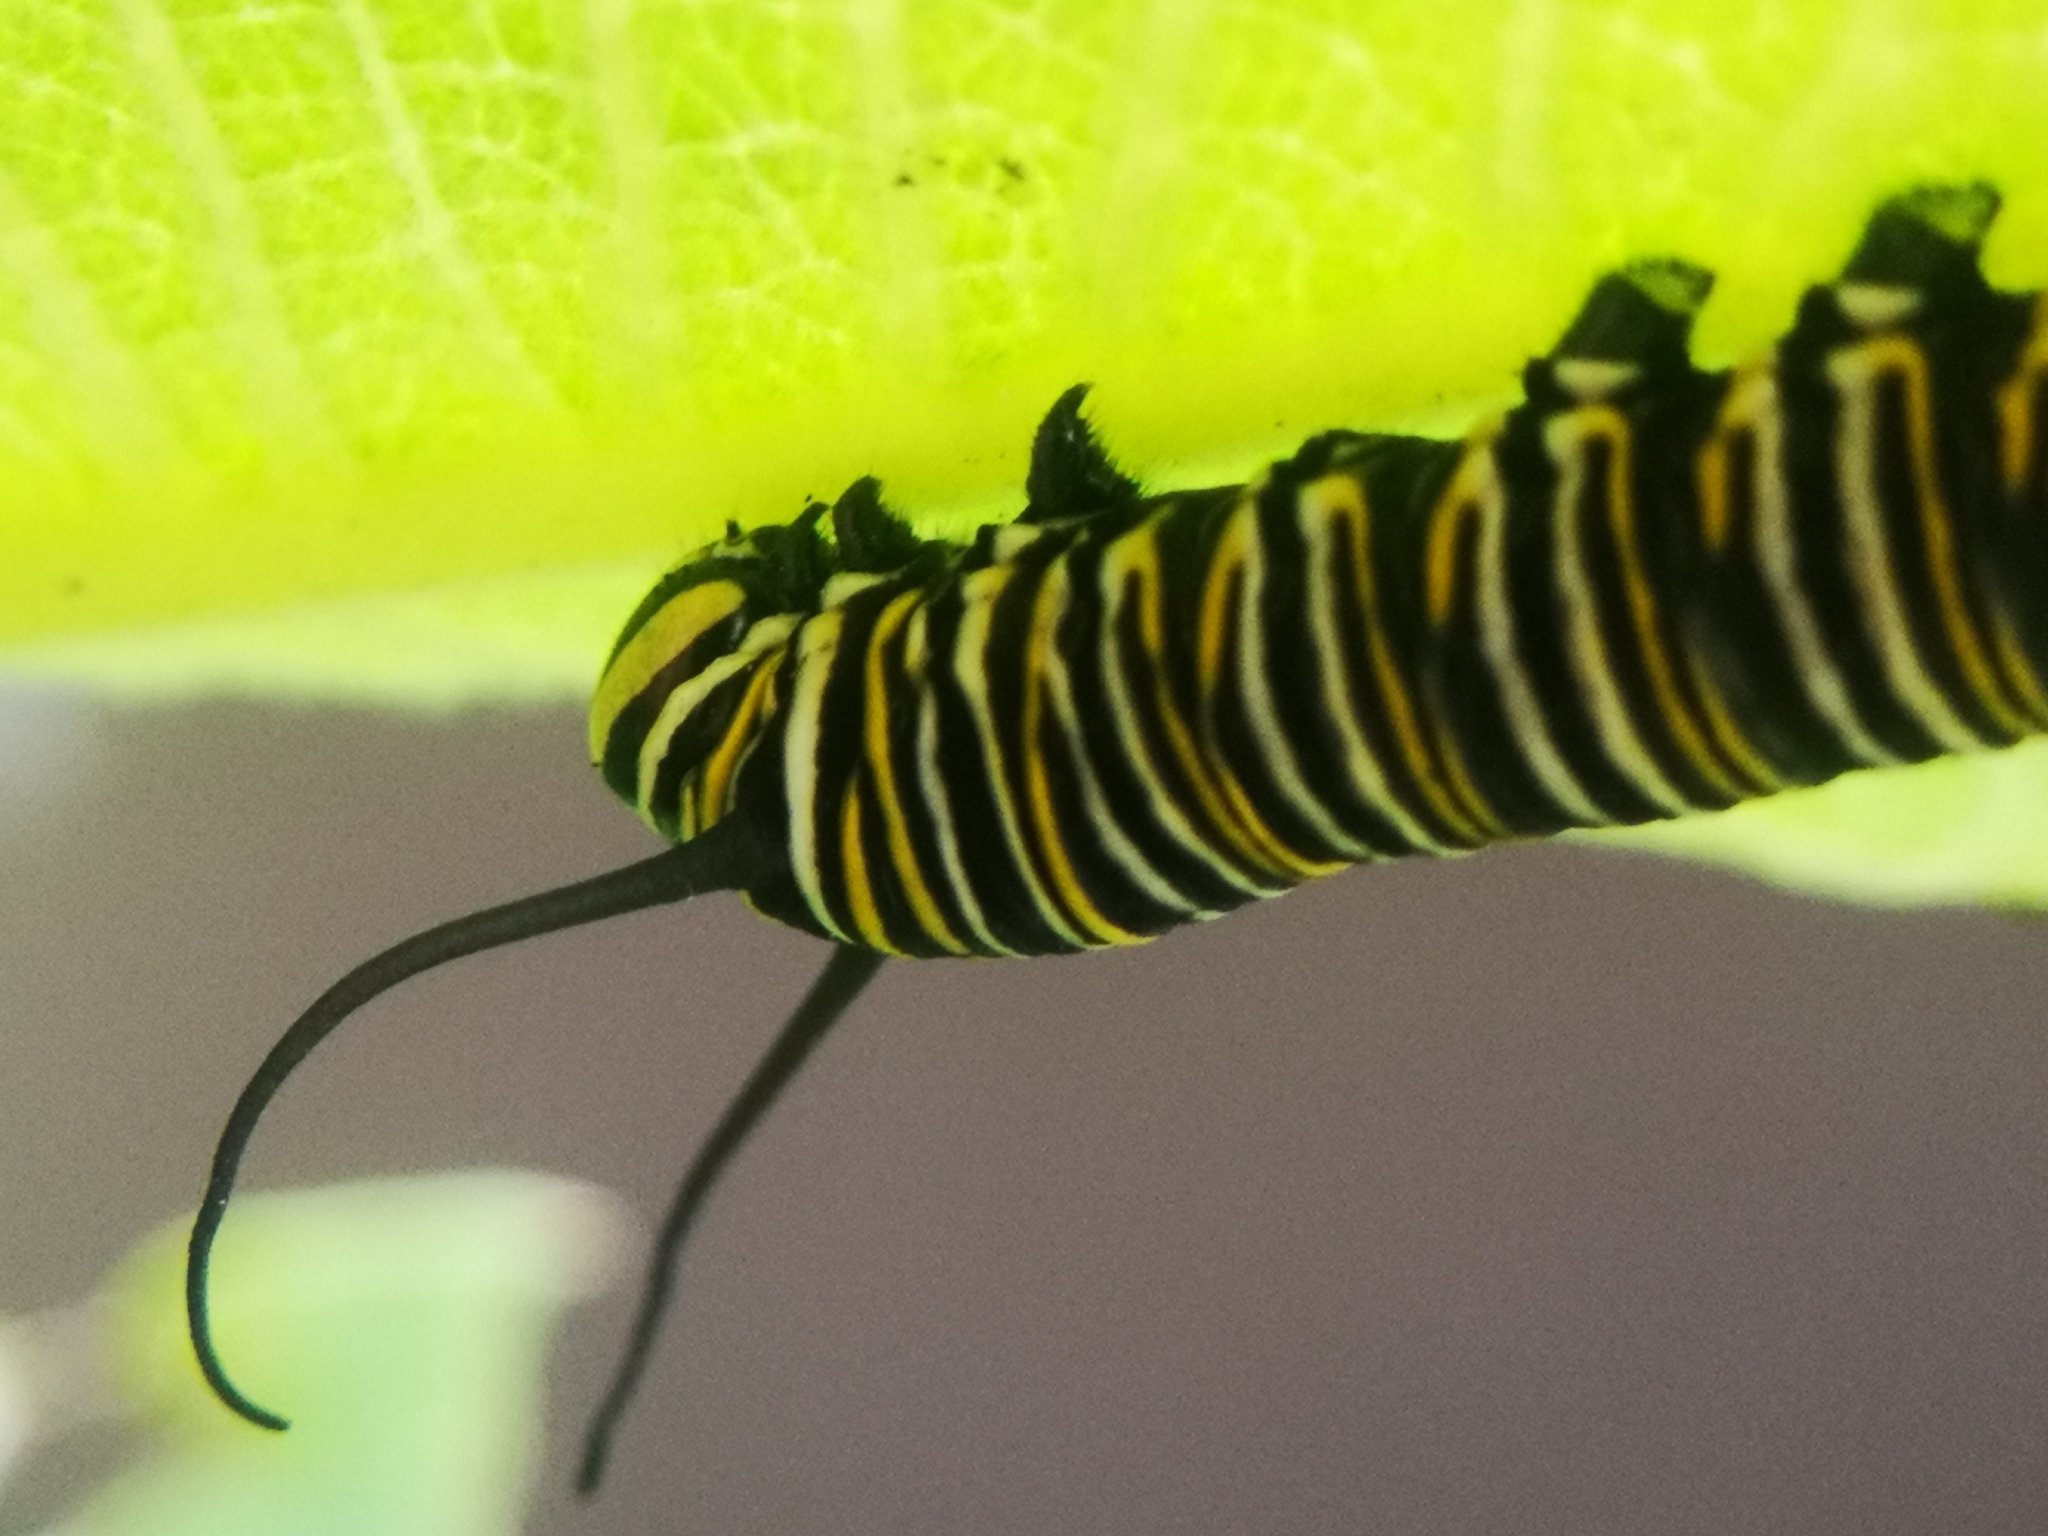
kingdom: Animalia
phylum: Arthropoda
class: Insecta
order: Lepidoptera
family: Nymphalidae
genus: Danaus
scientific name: Danaus plexippus
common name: Monarch
